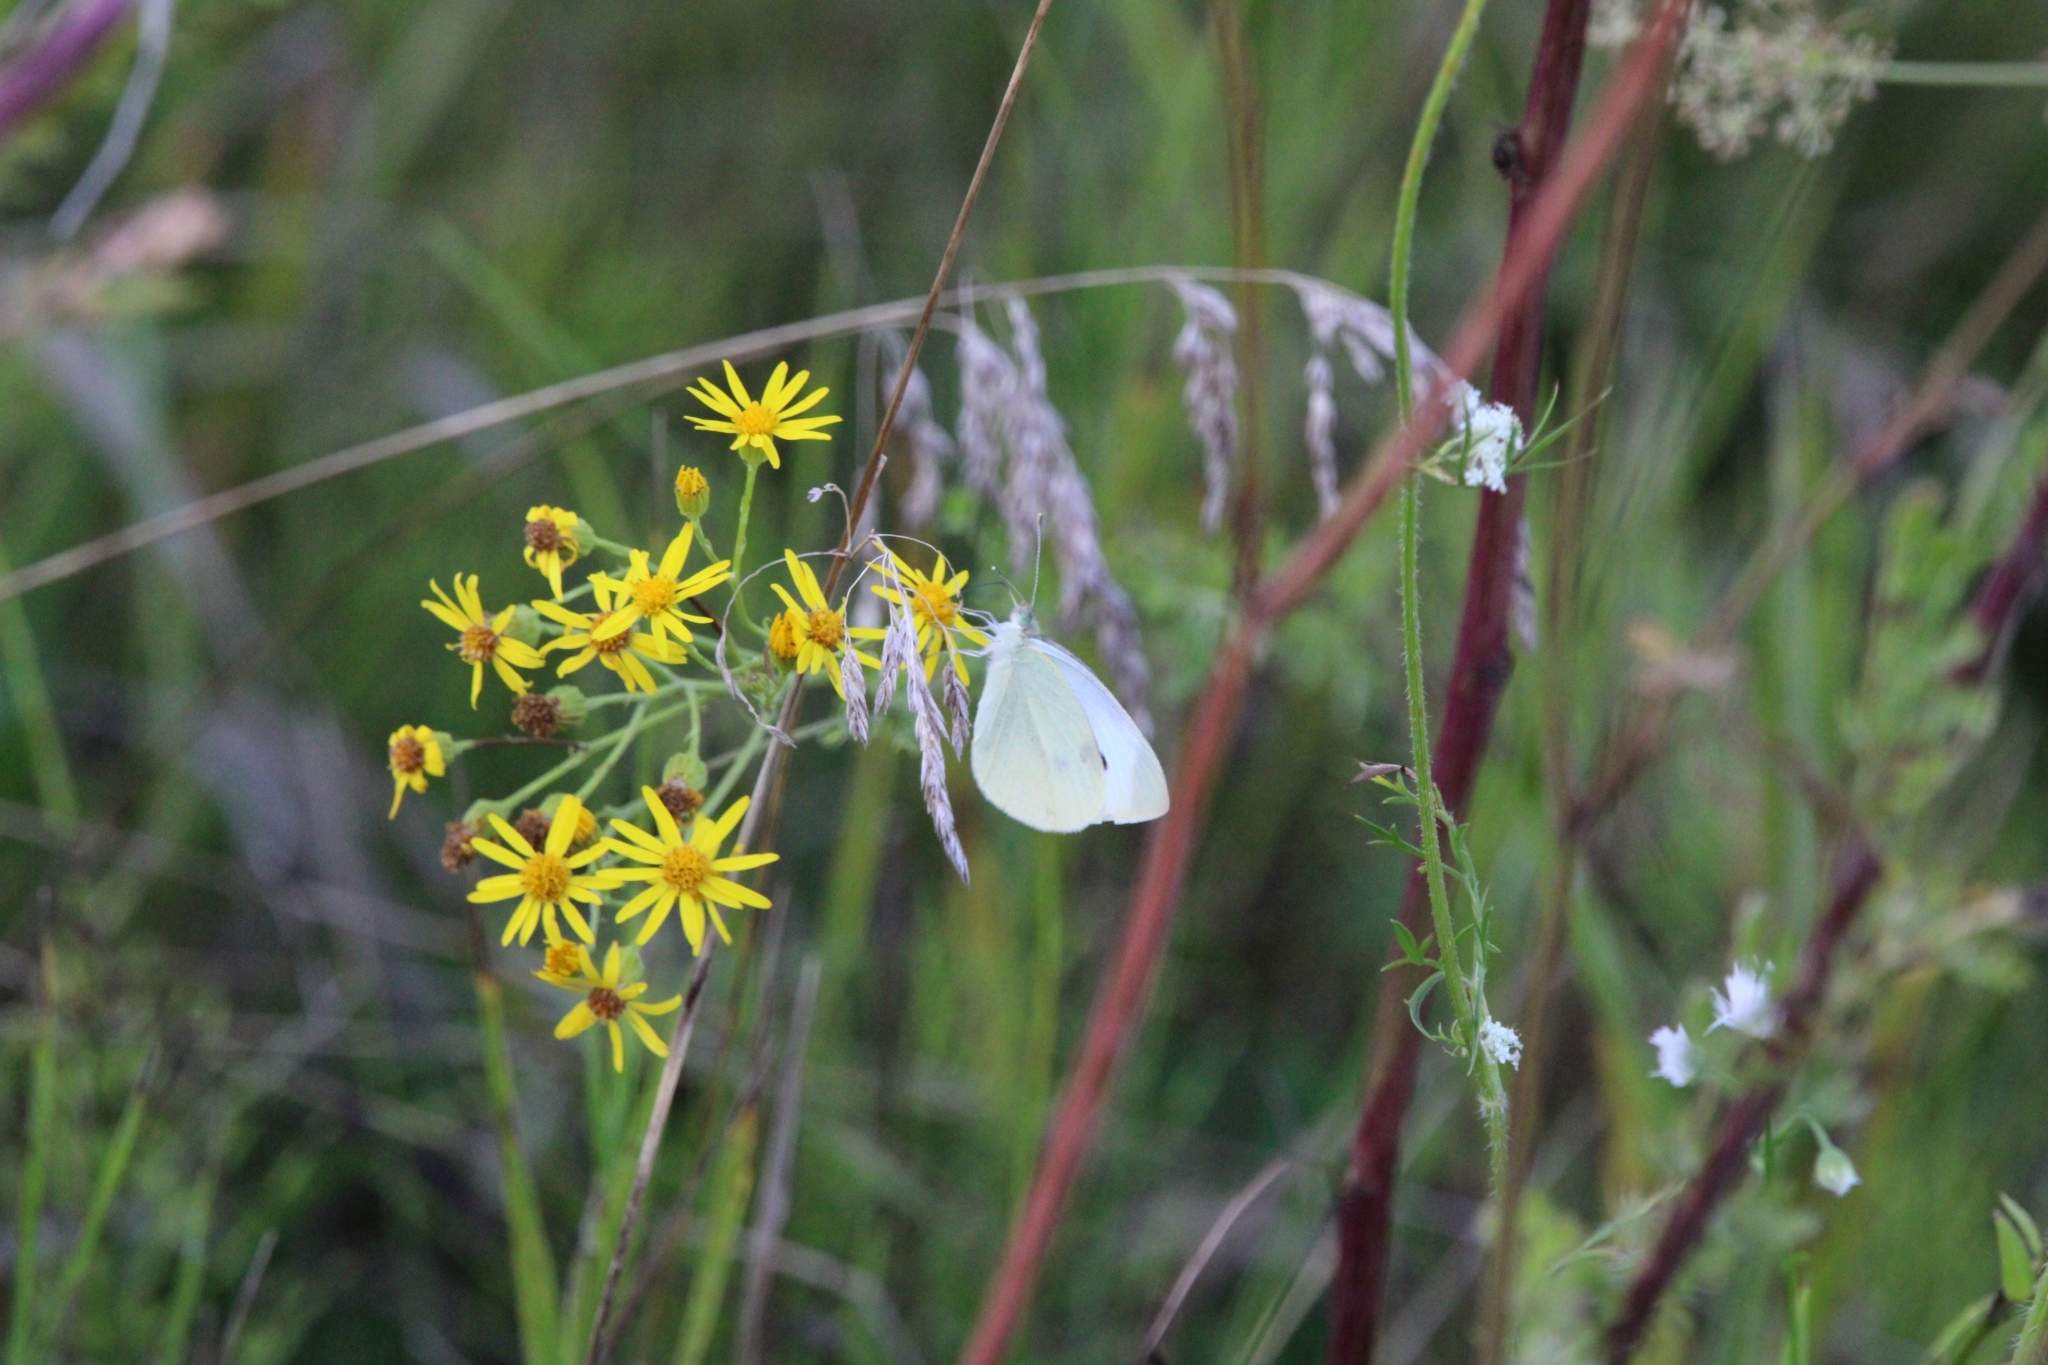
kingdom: Animalia
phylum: Arthropoda
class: Insecta
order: Lepidoptera
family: Pieridae
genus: Pieris
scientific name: Pieris rapae
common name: Small white
